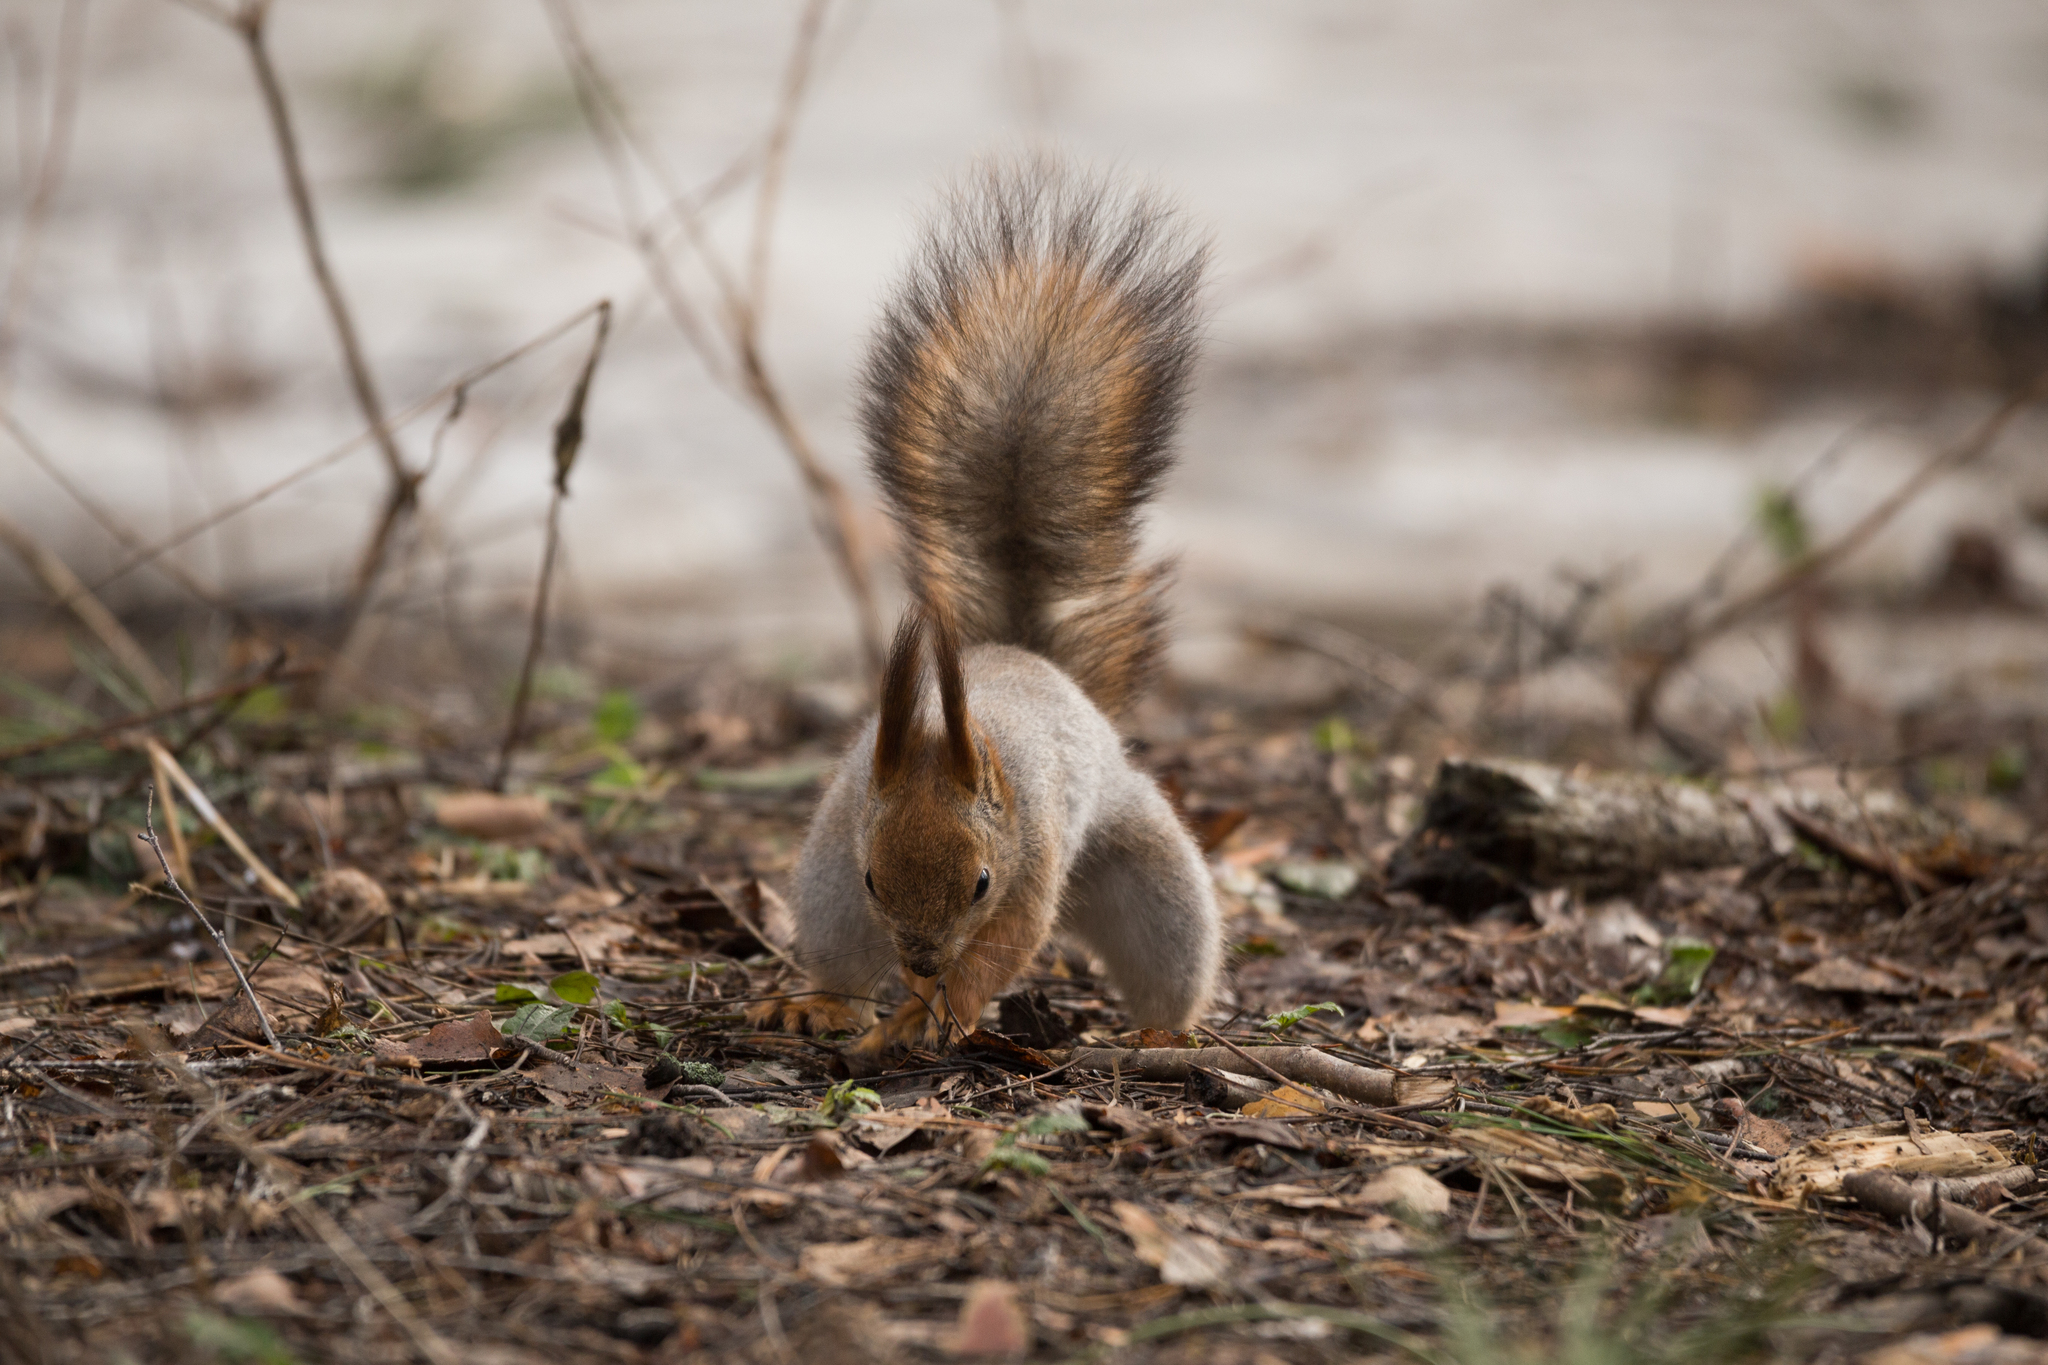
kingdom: Animalia
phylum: Chordata
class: Mammalia
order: Rodentia
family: Sciuridae
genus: Sciurus
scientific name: Sciurus vulgaris
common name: Eurasian red squirrel
